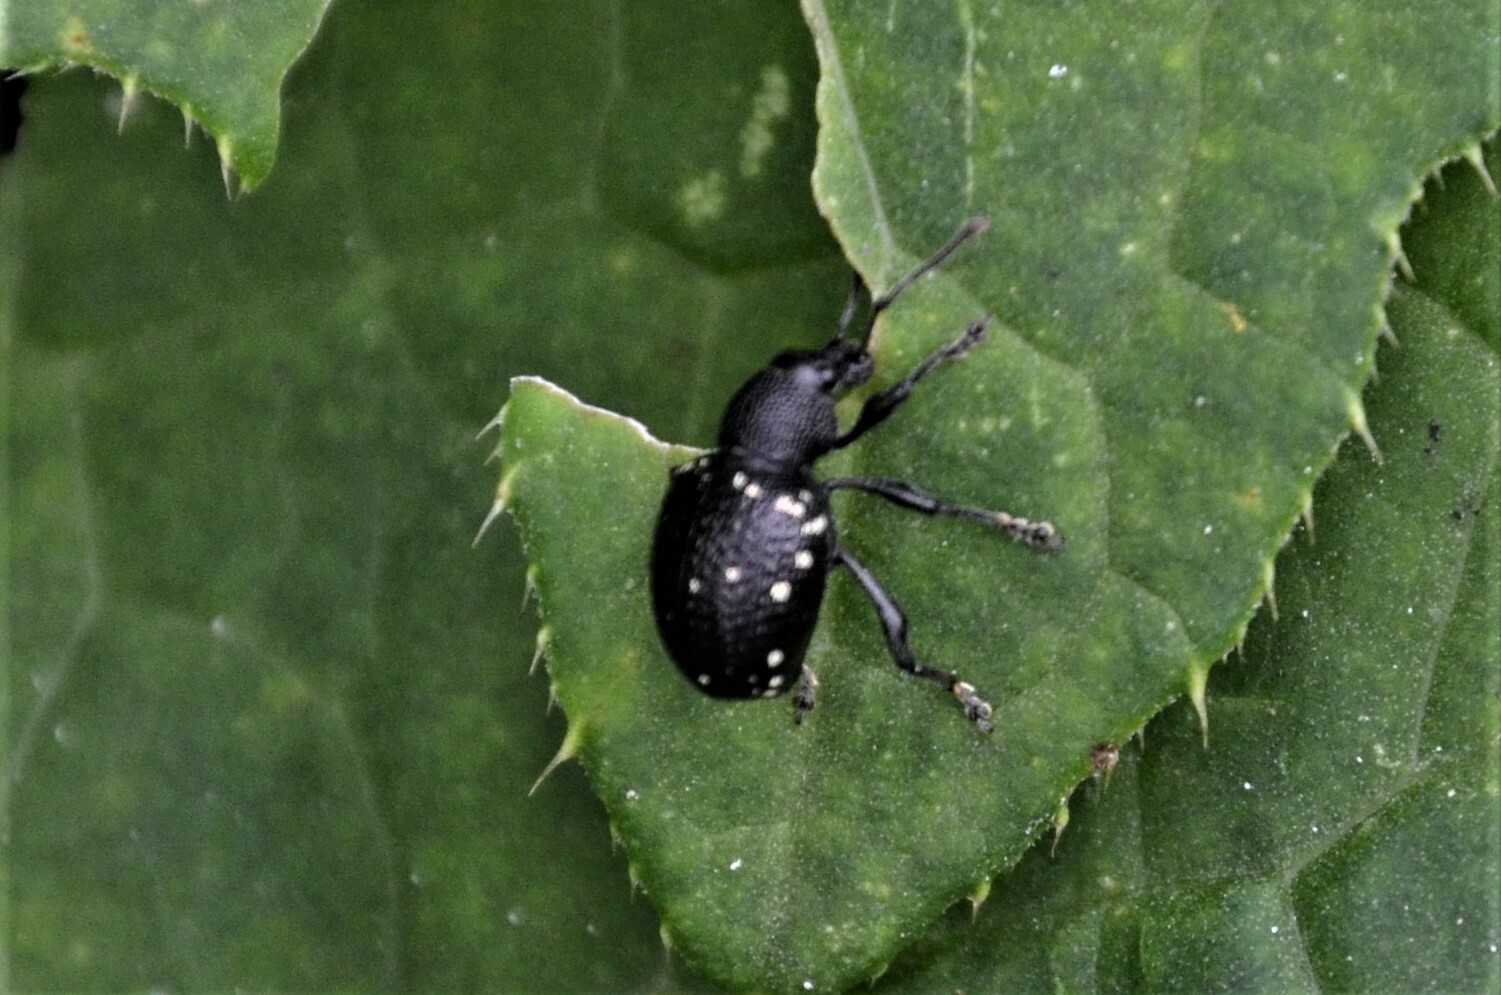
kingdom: Animalia
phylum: Arthropoda
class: Insecta
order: Coleoptera
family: Curculionidae
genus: Otiorhynchus
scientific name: Otiorhynchus gemmatus
